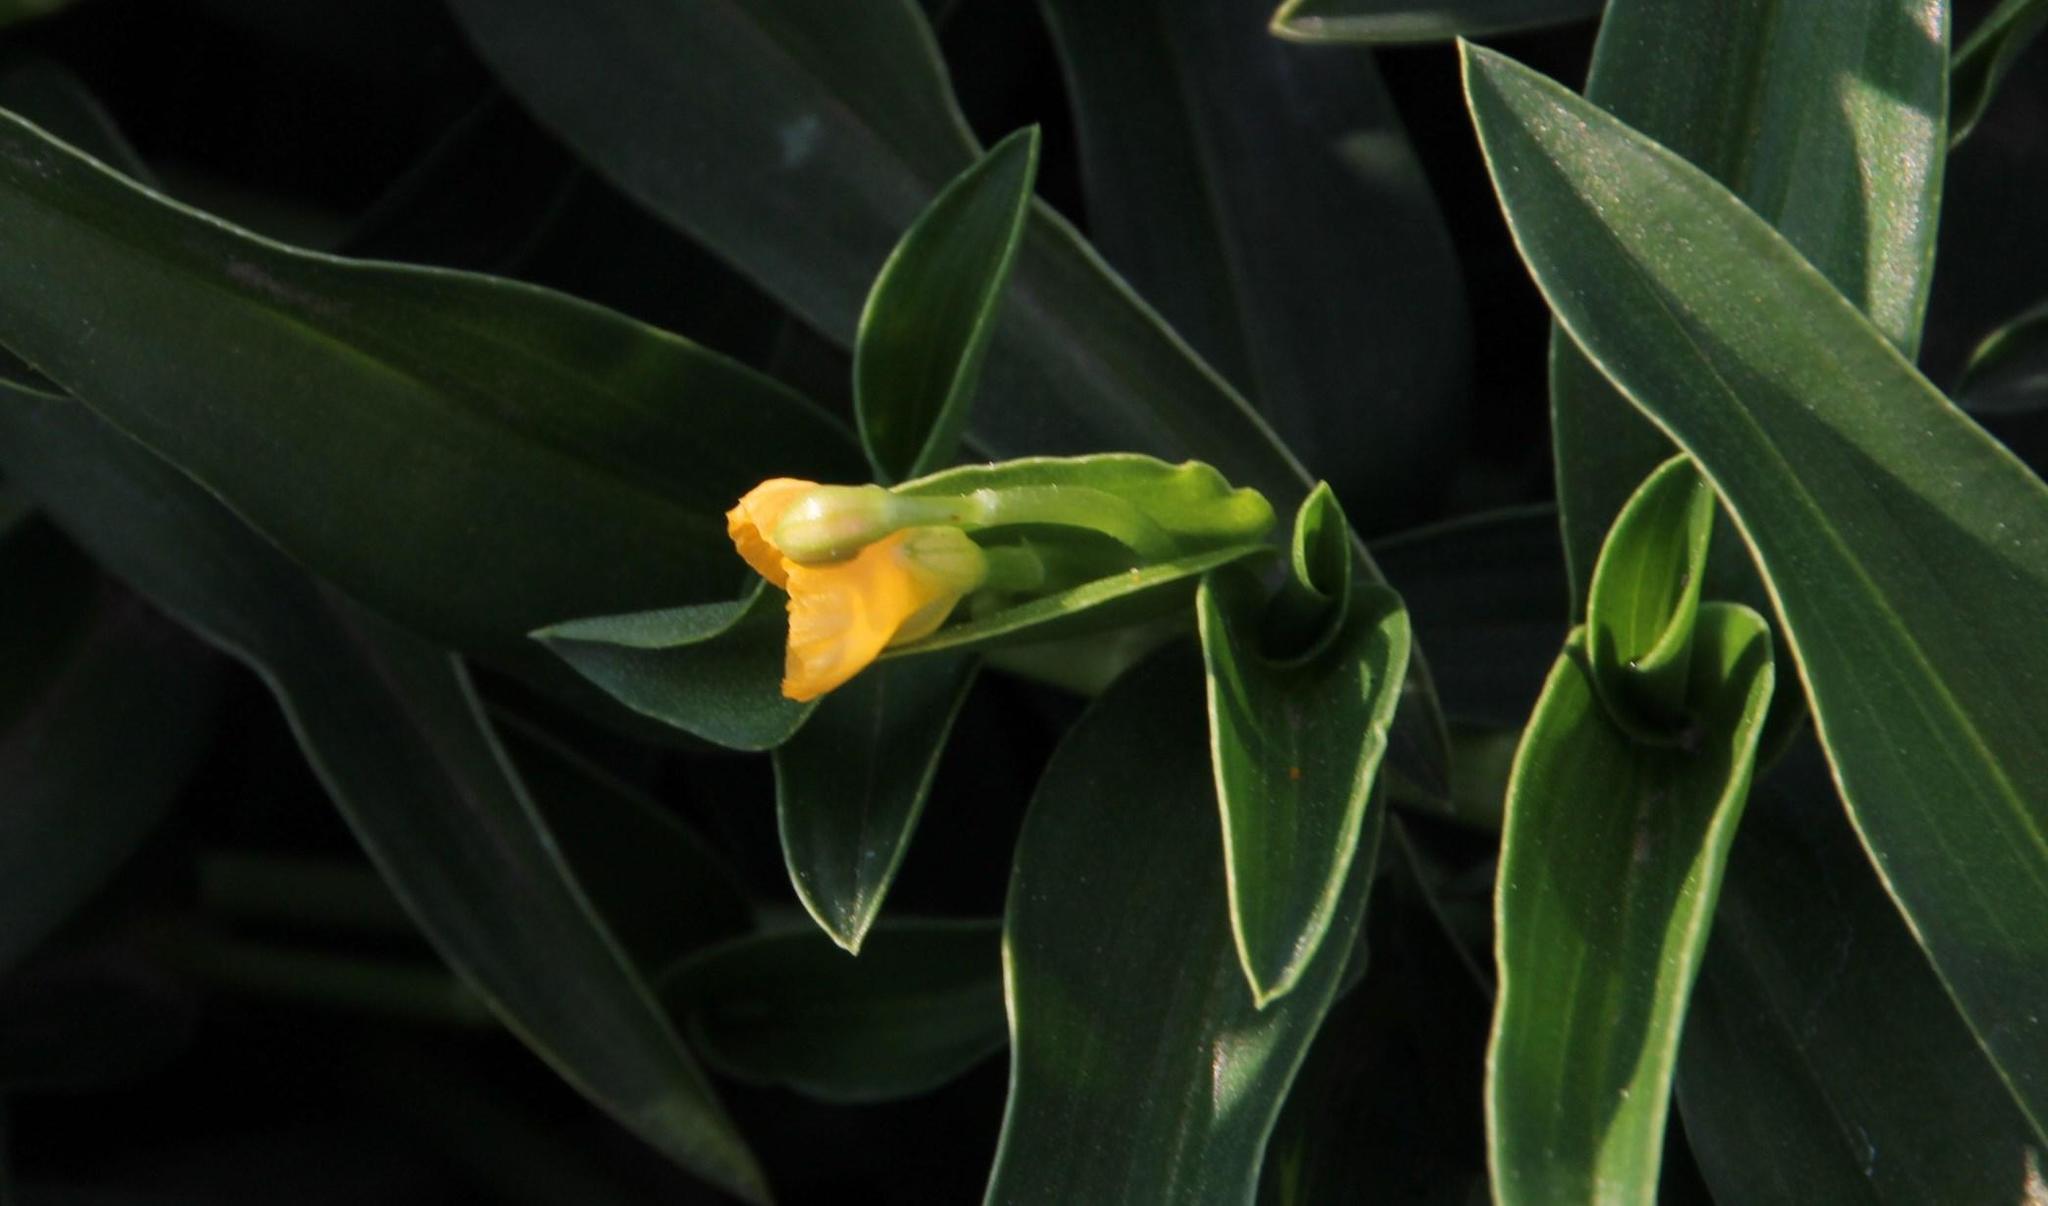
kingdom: Plantae
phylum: Tracheophyta
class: Liliopsida
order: Commelinales
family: Commelinaceae
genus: Commelina
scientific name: Commelina africana
